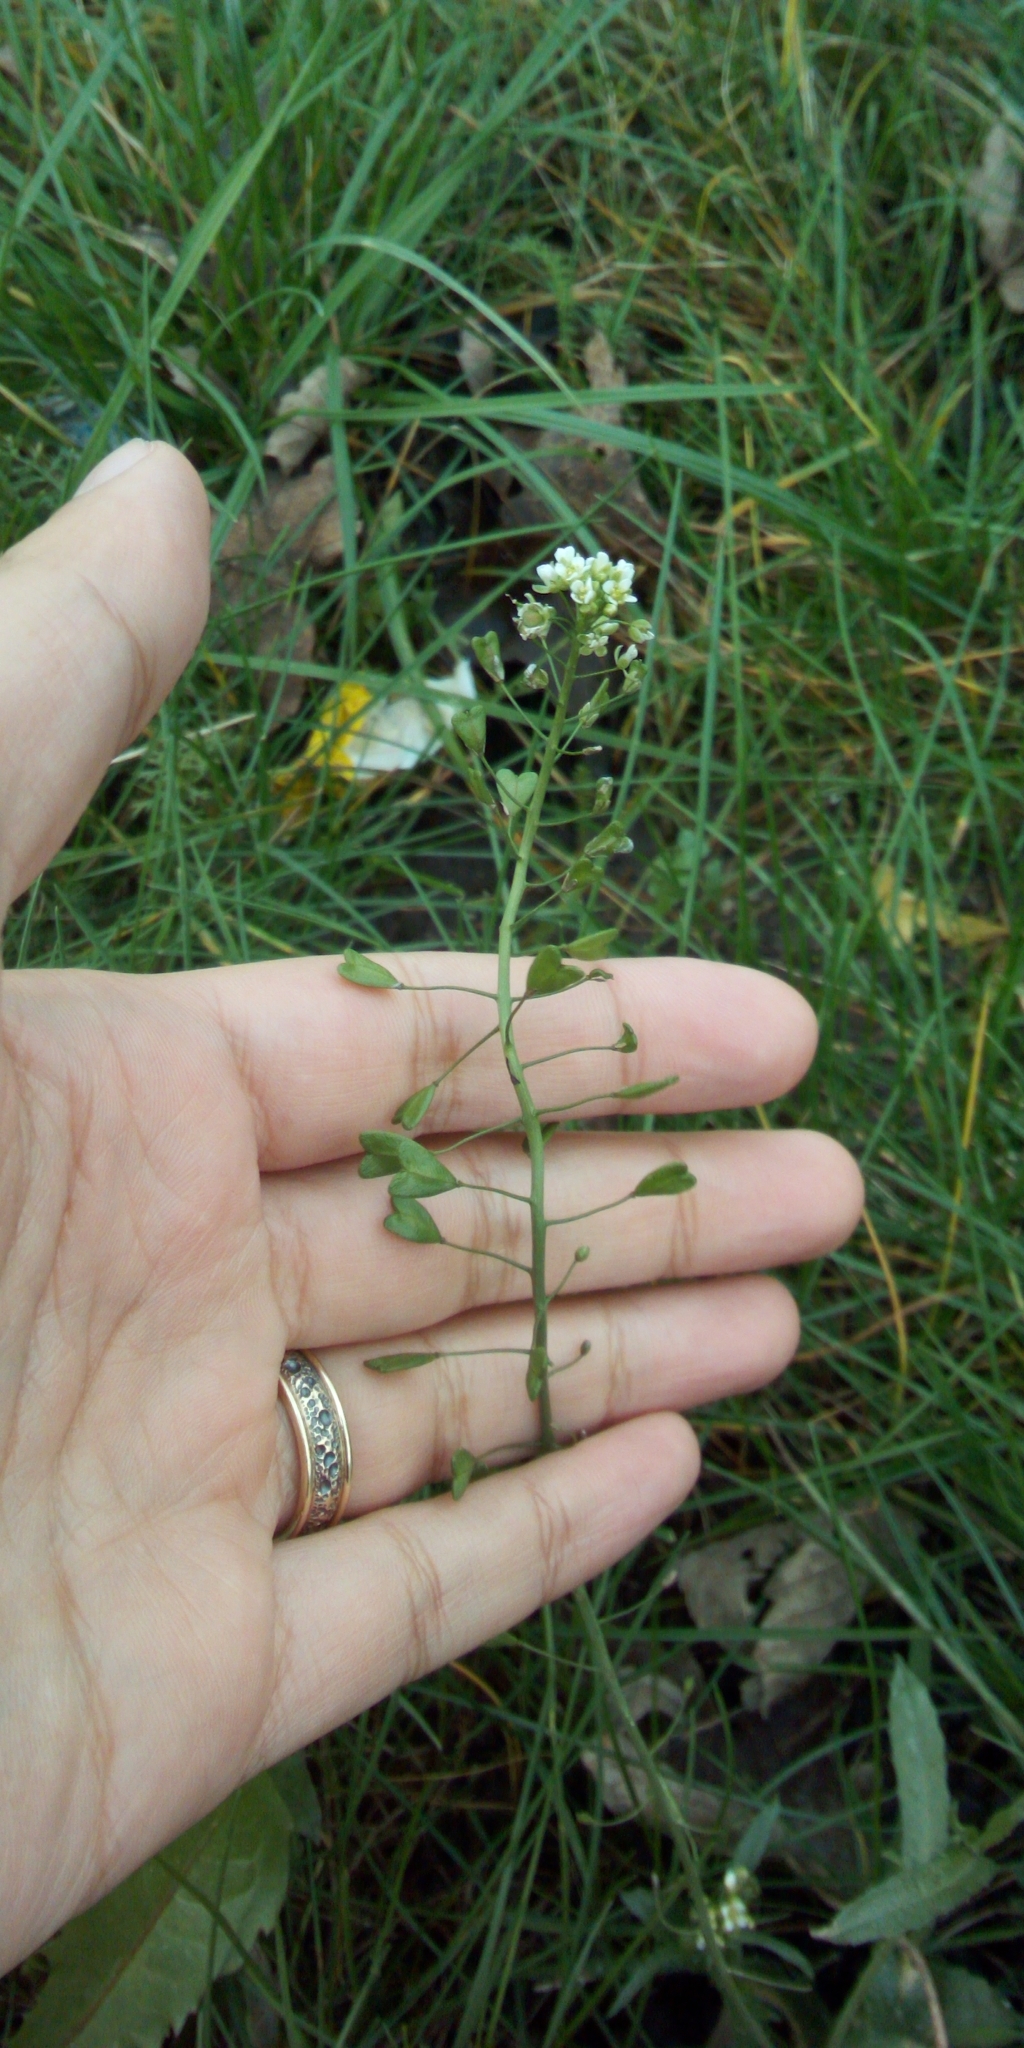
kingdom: Plantae
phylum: Tracheophyta
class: Magnoliopsida
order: Brassicales
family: Brassicaceae
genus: Capsella
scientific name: Capsella bursa-pastoris
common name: Shepherd's purse
